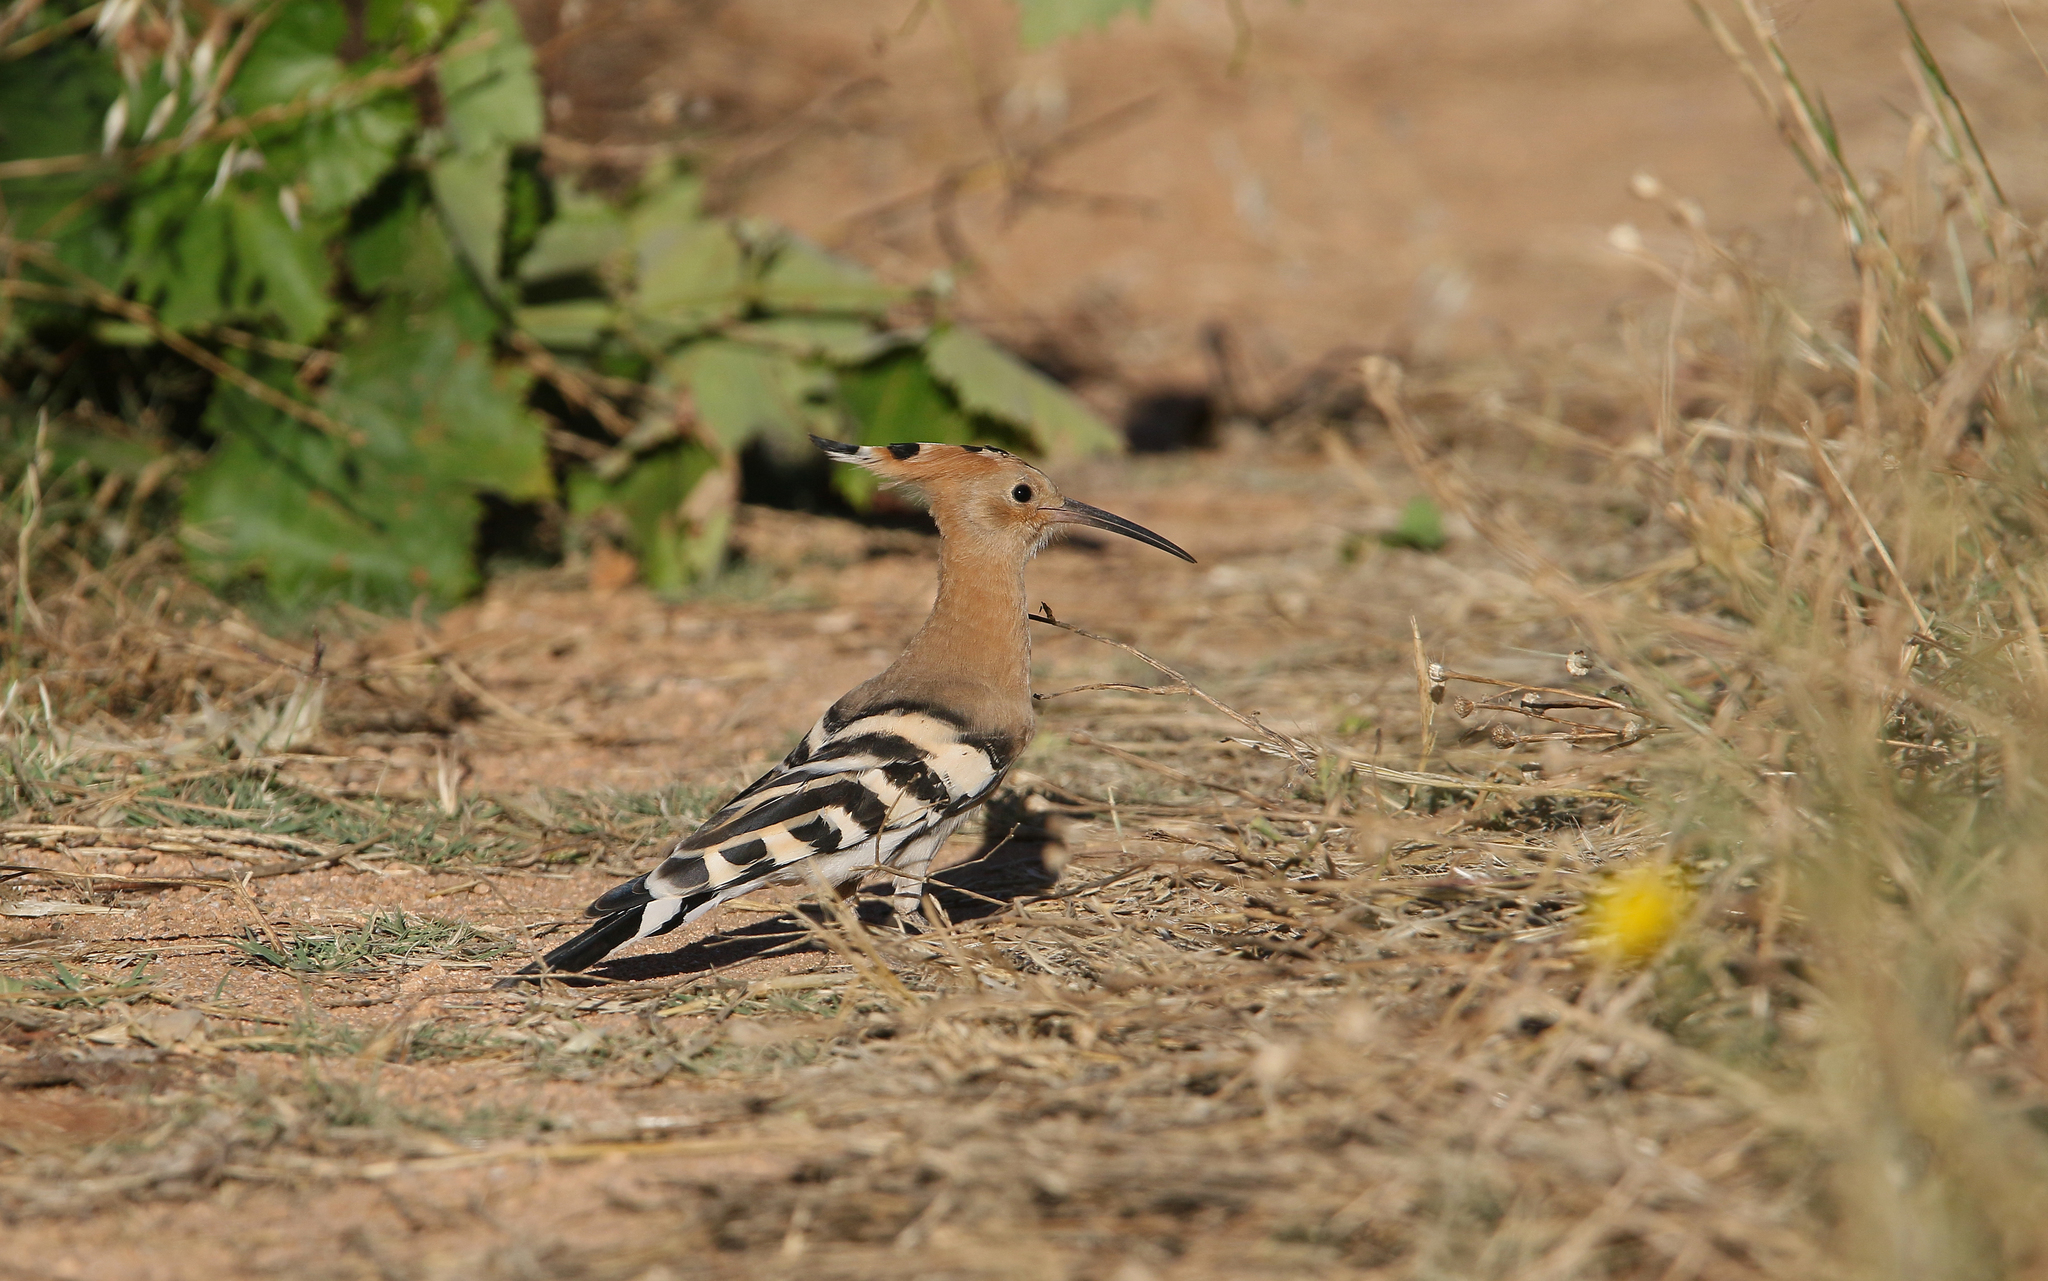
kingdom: Animalia
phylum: Chordata
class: Aves
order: Bucerotiformes
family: Upupidae
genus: Upupa
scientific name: Upupa epops
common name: Eurasian hoopoe
